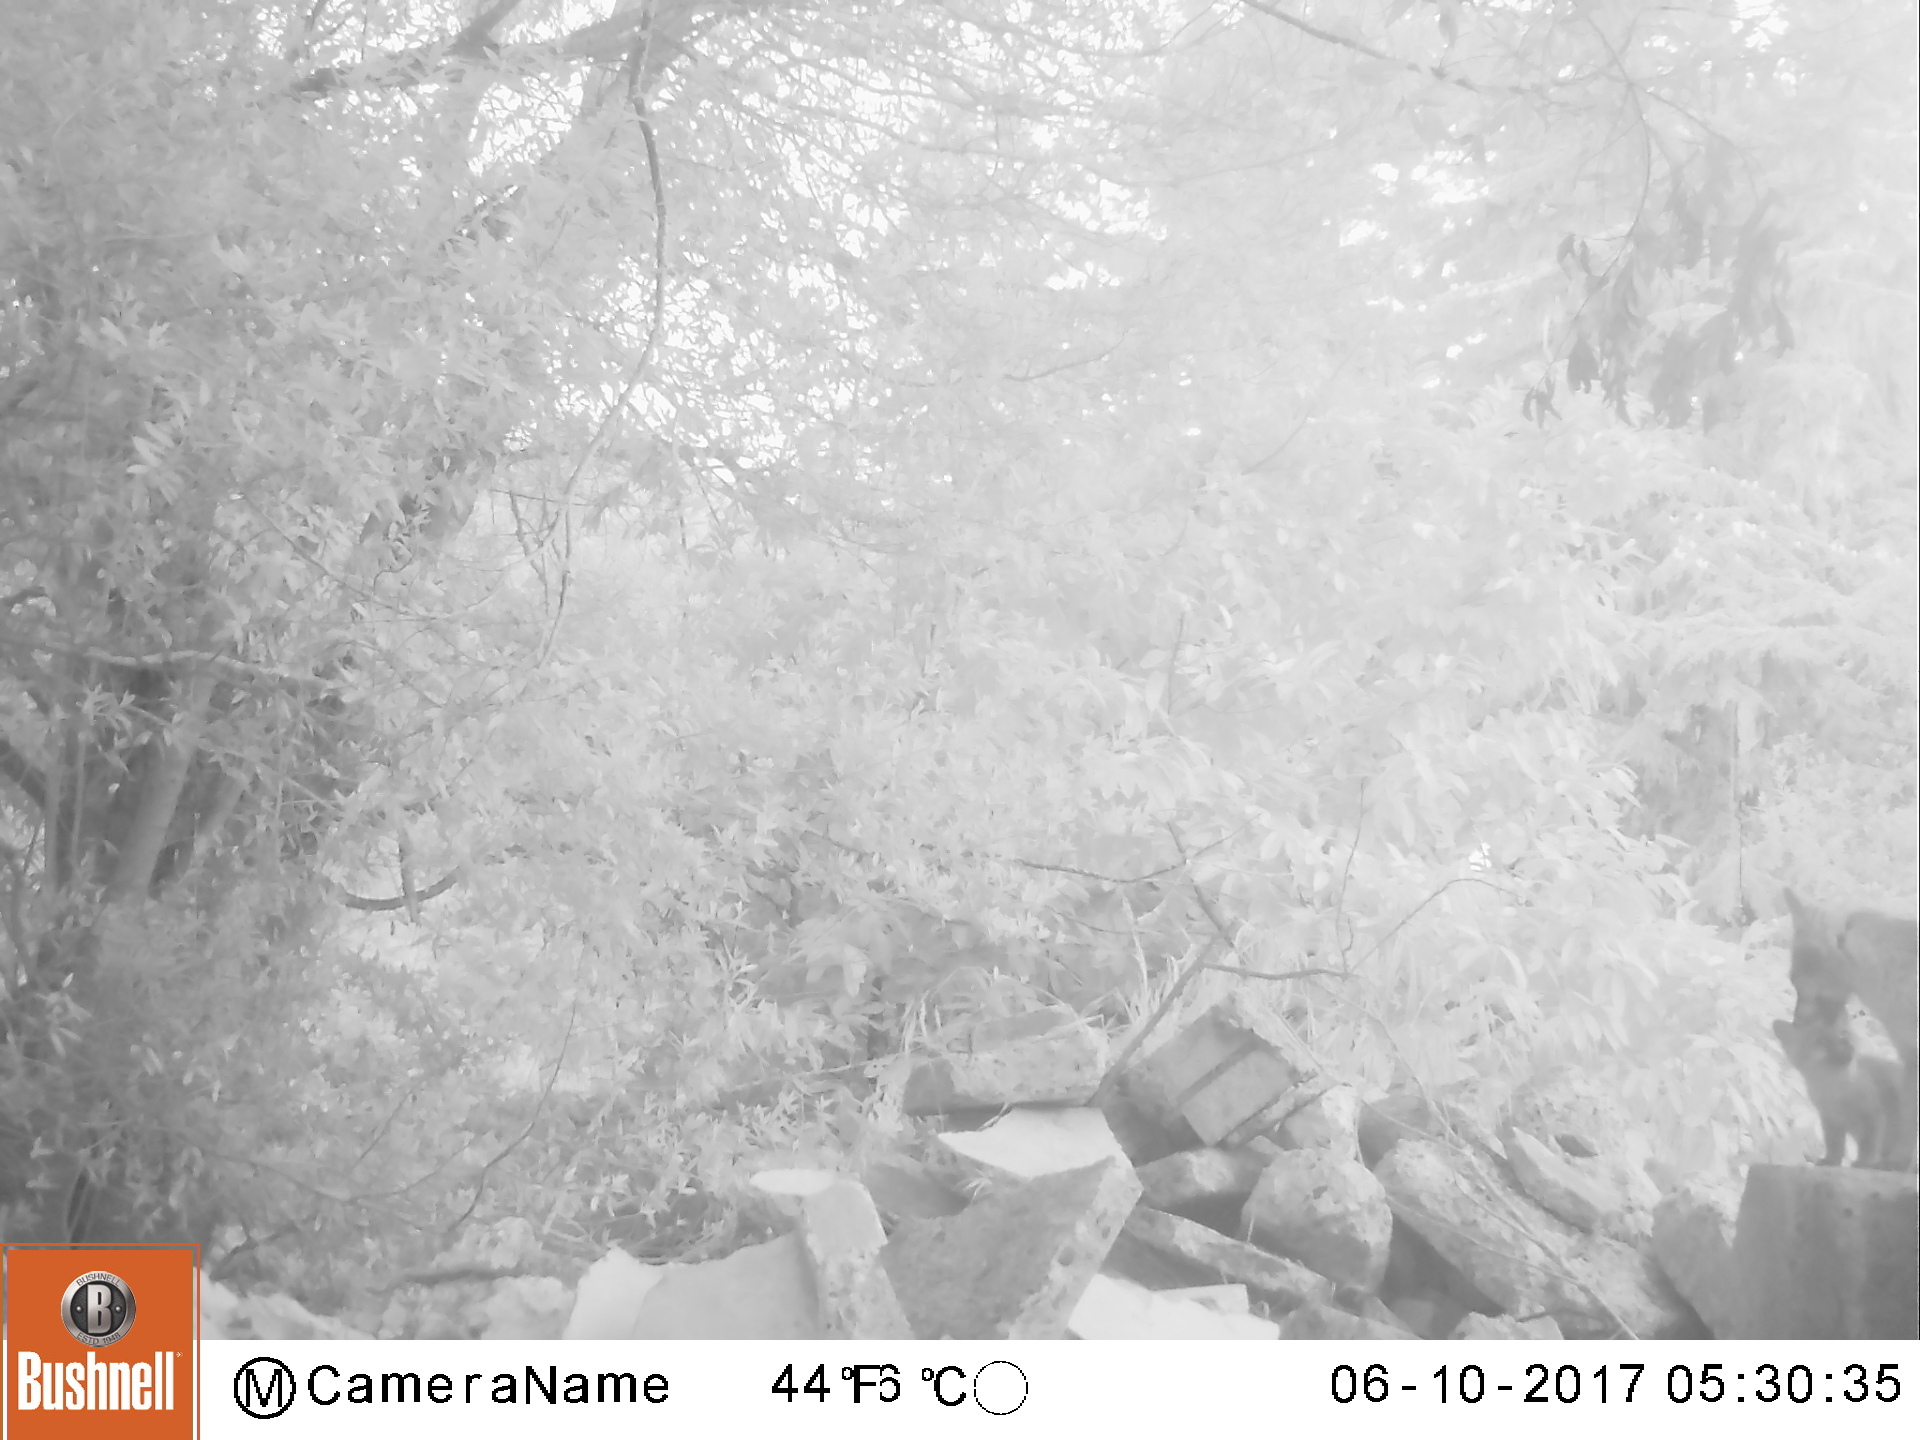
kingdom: Animalia
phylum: Chordata
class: Mammalia
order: Carnivora
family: Canidae
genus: Urocyon
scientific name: Urocyon cinereoargenteus
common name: Gray fox
